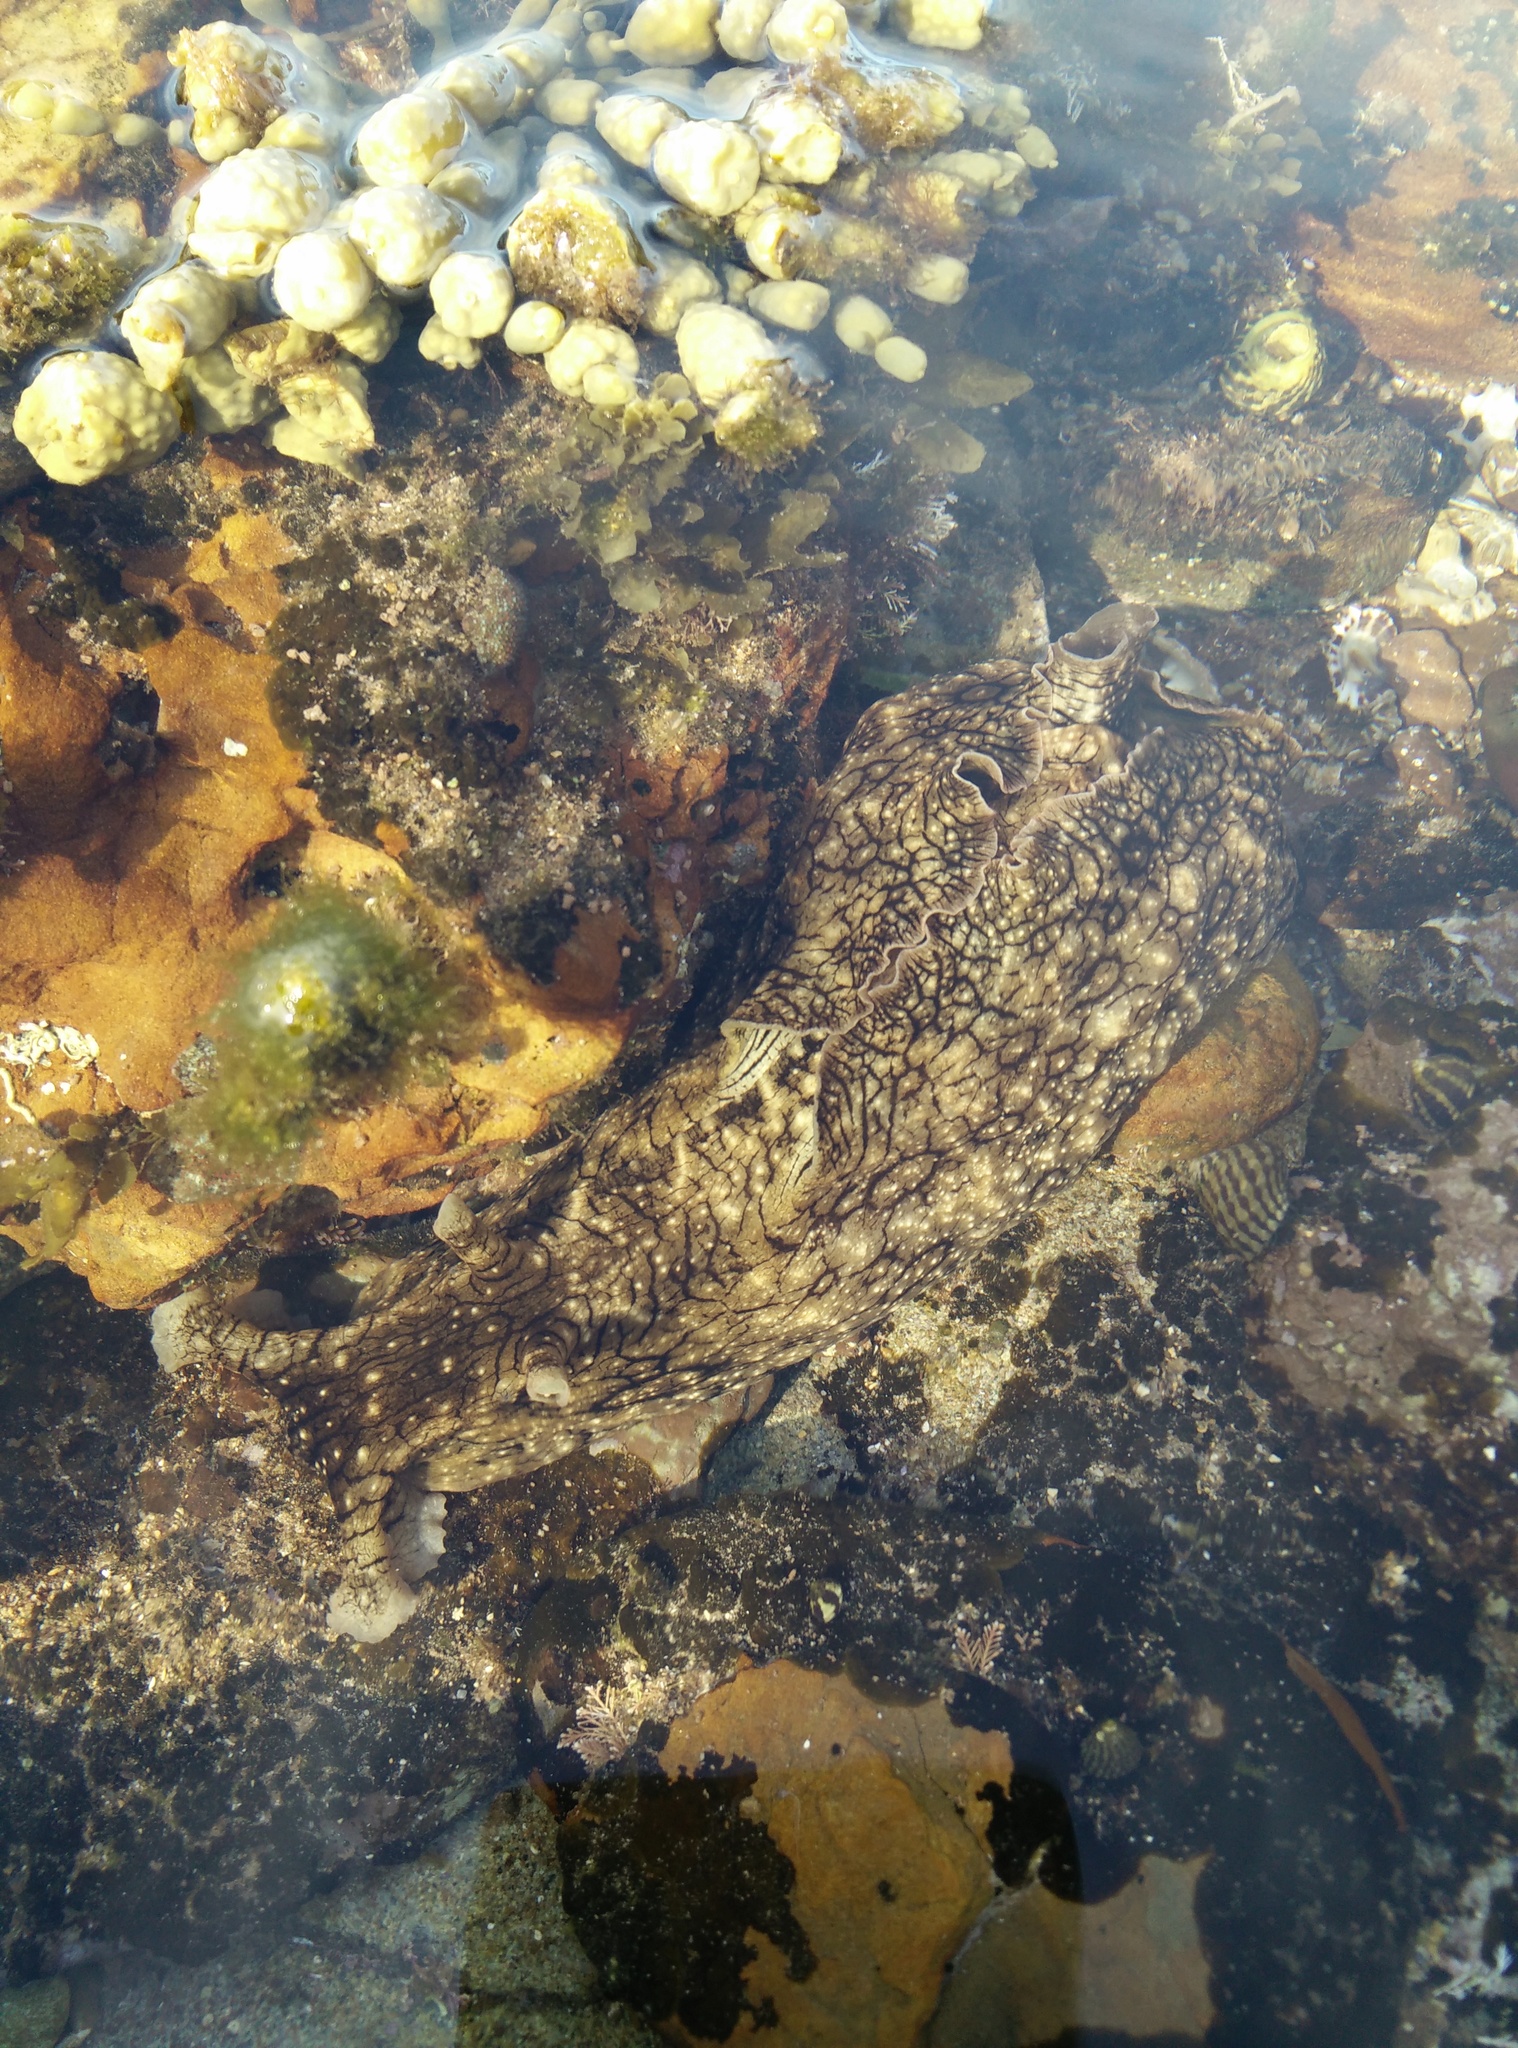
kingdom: Animalia
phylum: Mollusca
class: Gastropoda
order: Aplysiida
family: Aplysiidae
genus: Aplysia
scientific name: Aplysia argus
